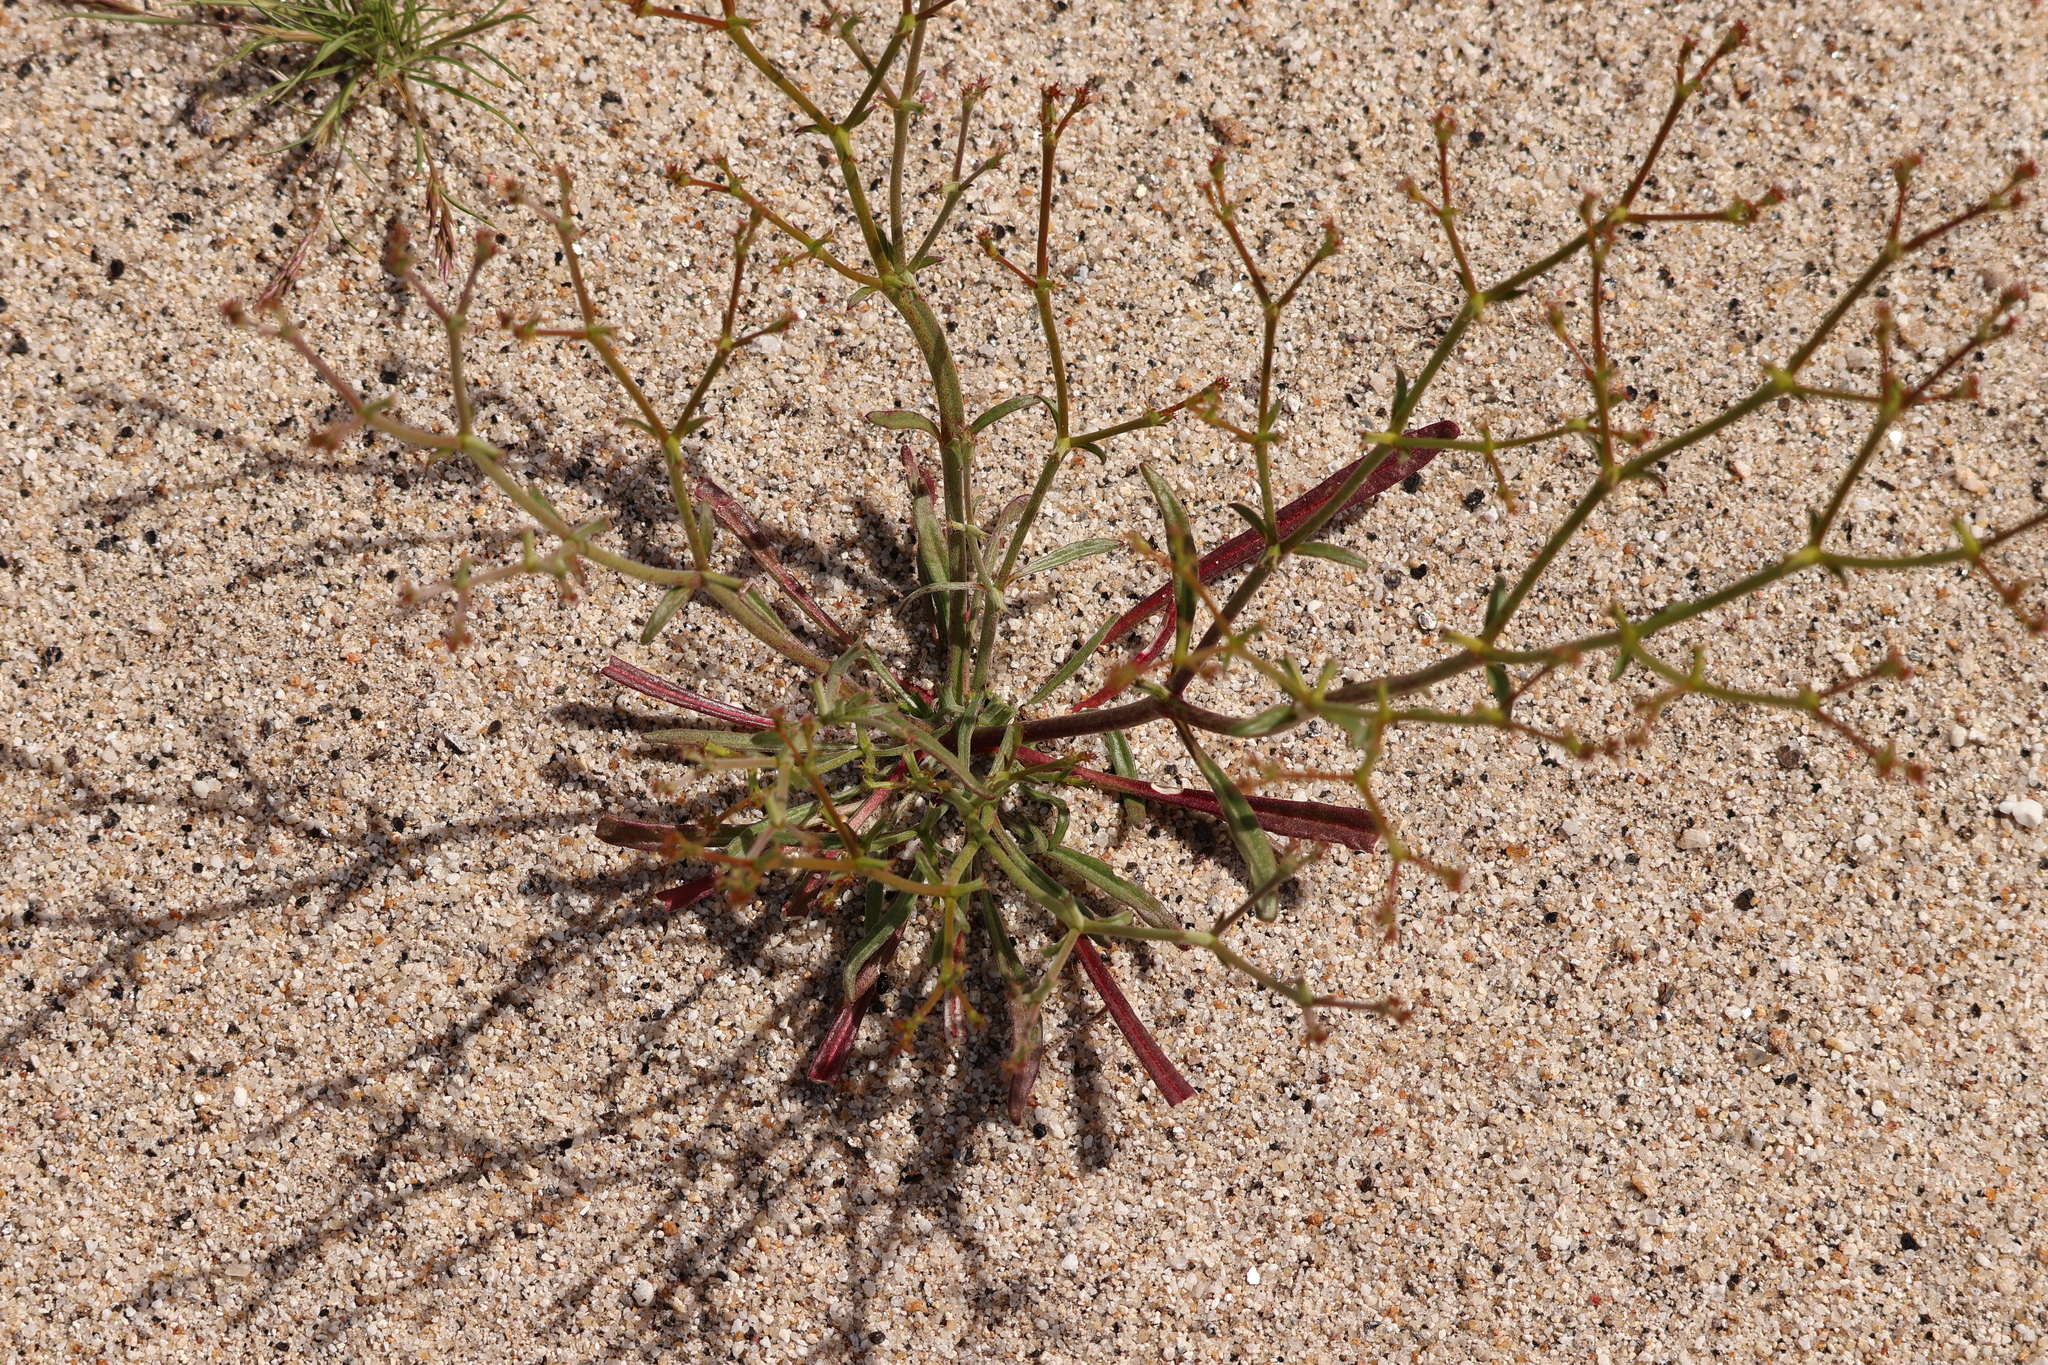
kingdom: Plantae
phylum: Tracheophyta
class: Magnoliopsida
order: Caryophyllales
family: Polygonaceae
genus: Chorizanthe
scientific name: Chorizanthe brevicornu
